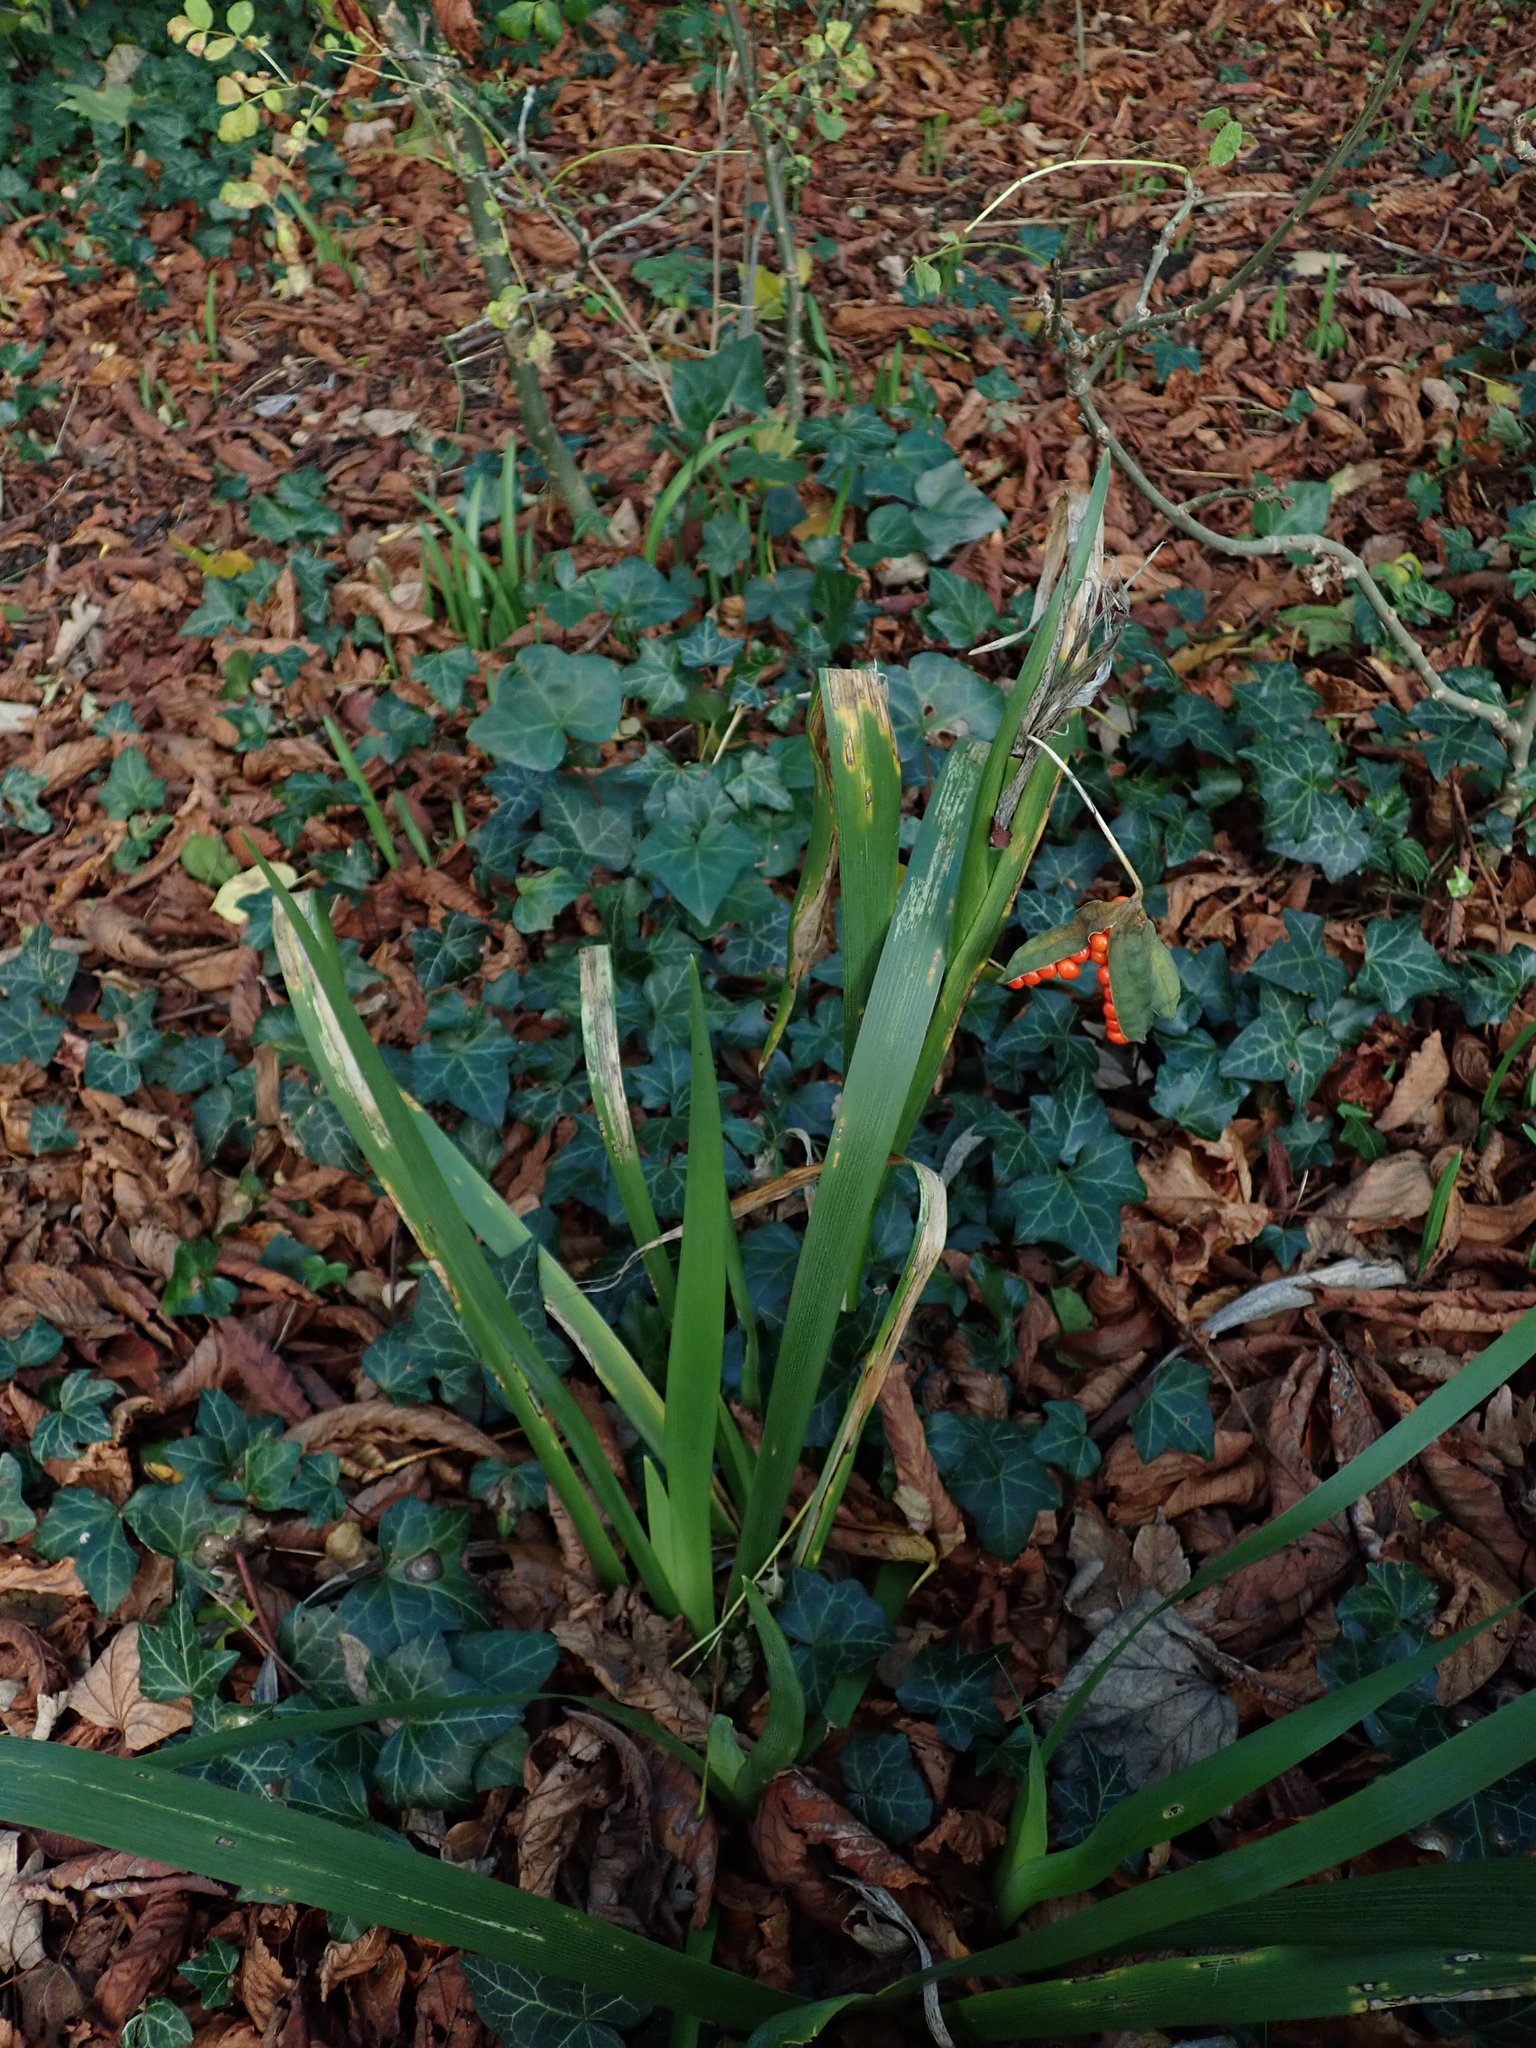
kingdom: Plantae
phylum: Tracheophyta
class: Liliopsida
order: Asparagales
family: Iridaceae
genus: Iris
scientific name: Iris foetidissima
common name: Stinking iris
